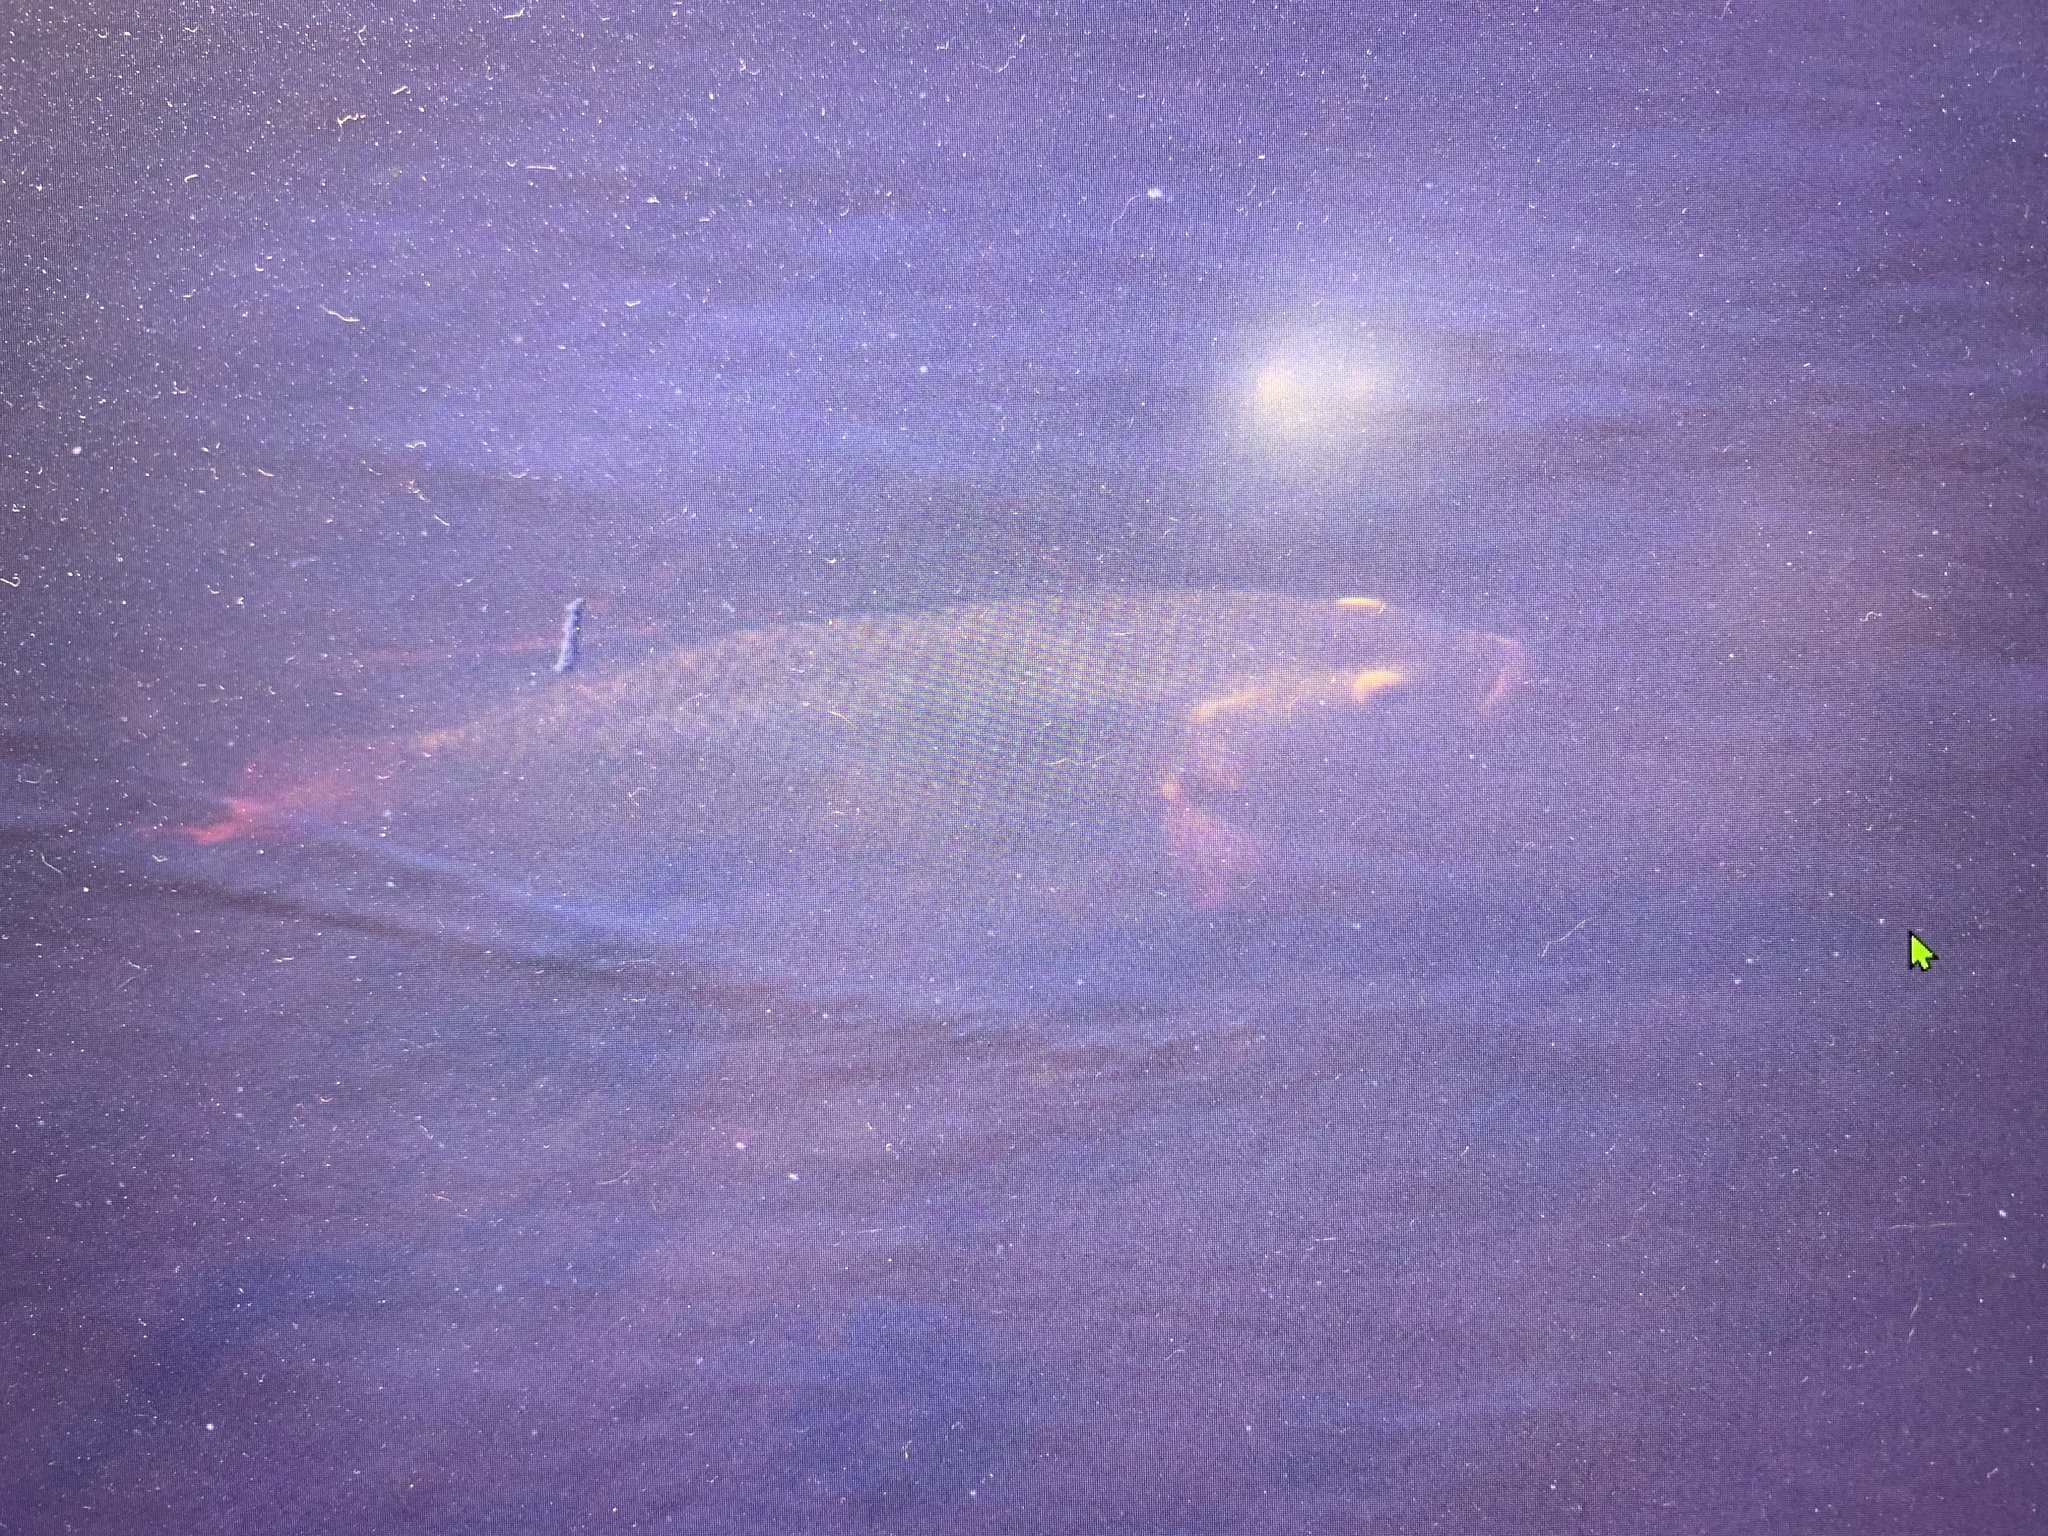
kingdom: Animalia
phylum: Chordata
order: Perciformes
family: Cichlidae
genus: Oreochromis
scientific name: Oreochromis aureus
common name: Blue tilapia
